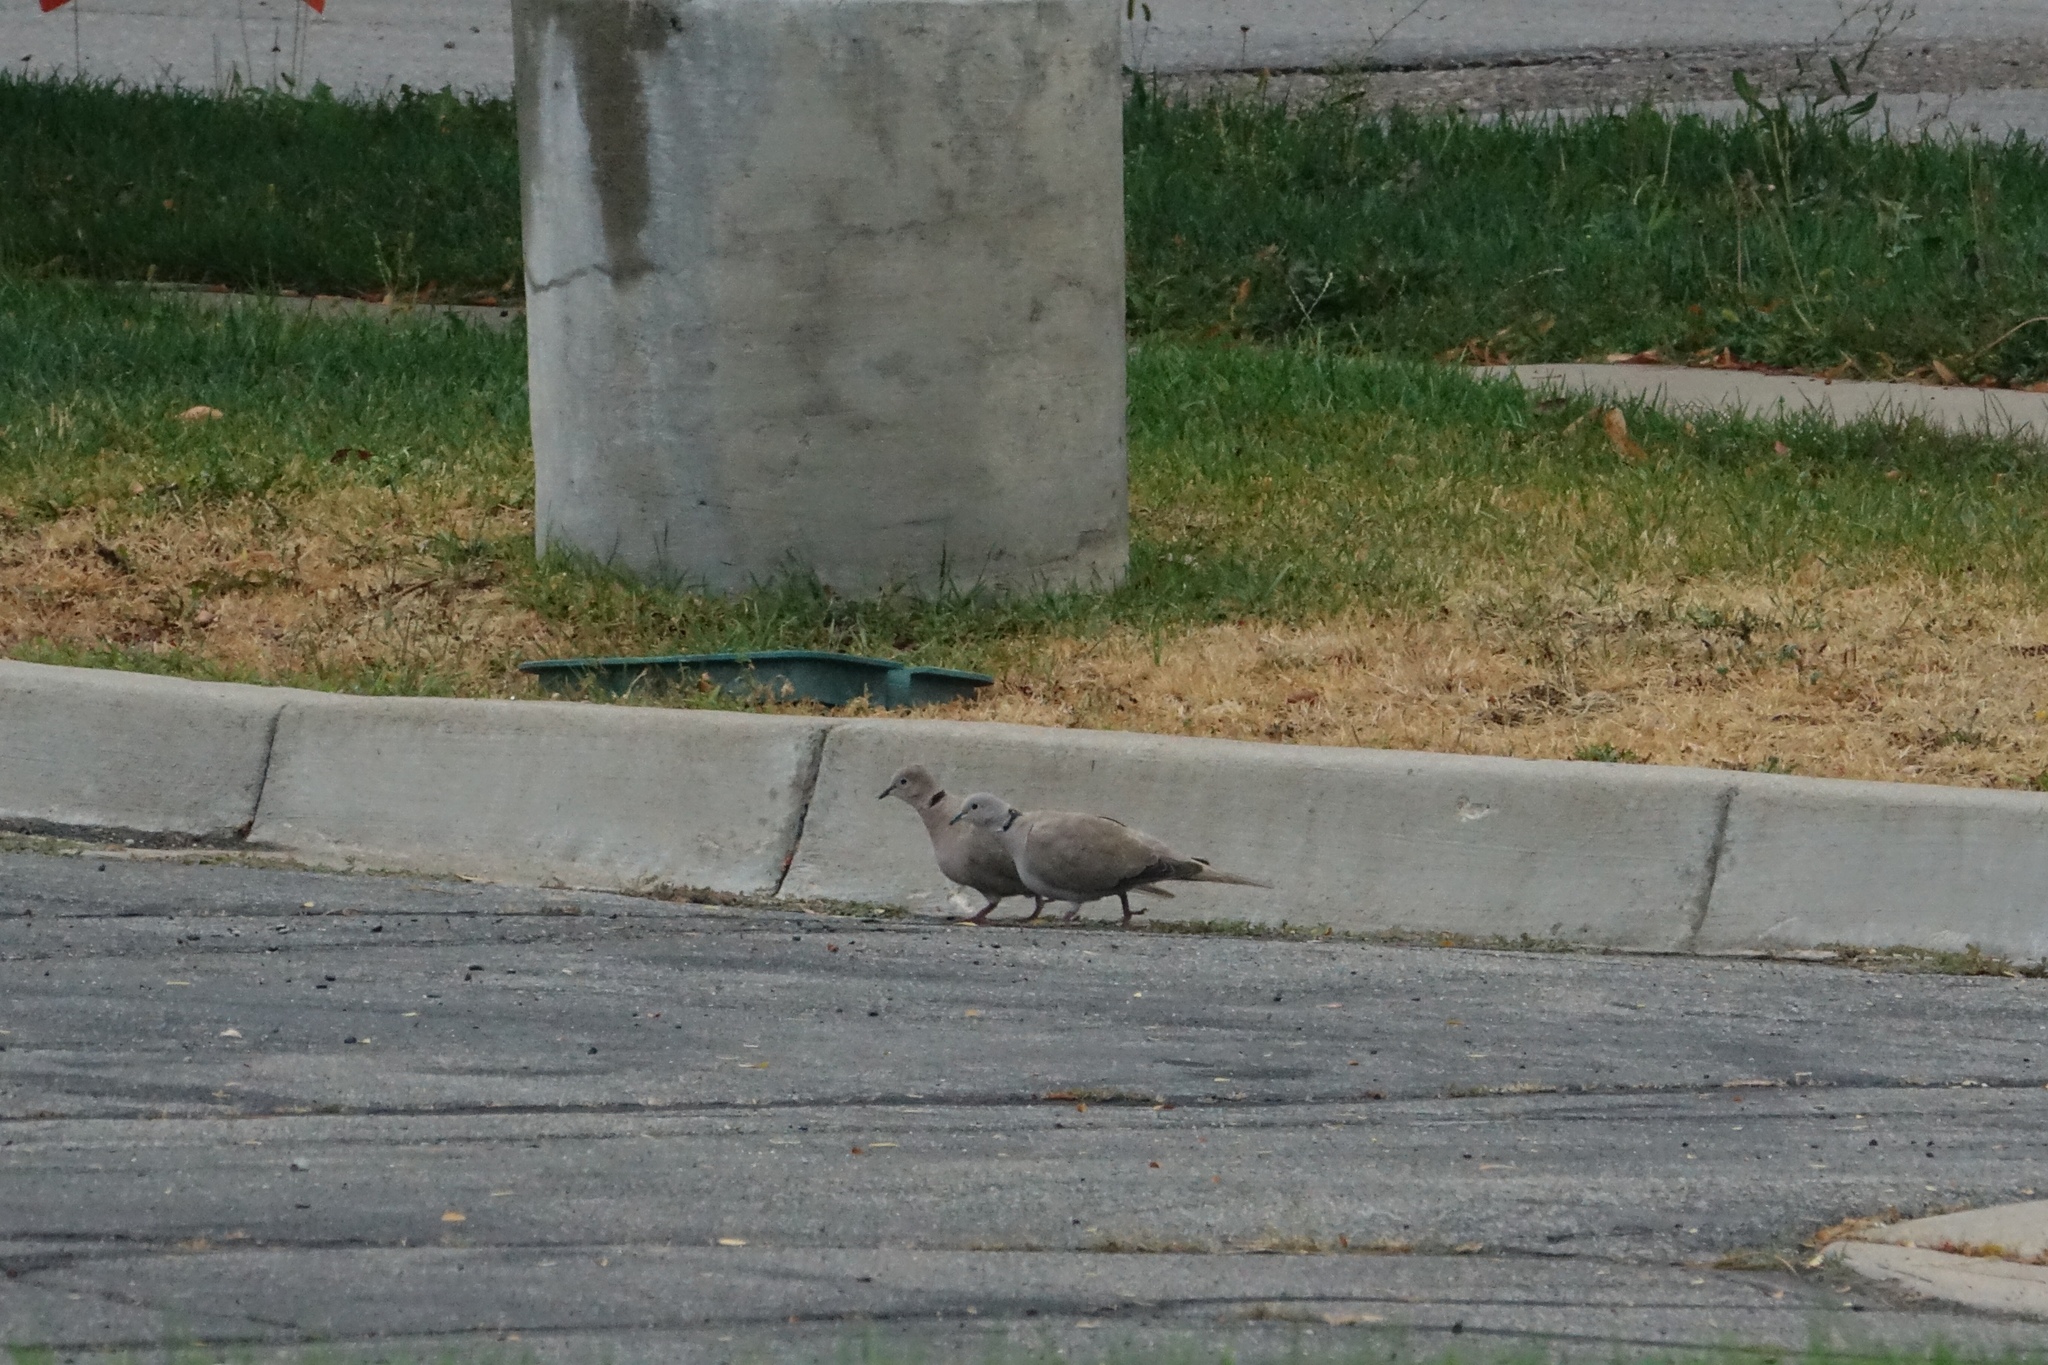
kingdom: Animalia
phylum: Chordata
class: Aves
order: Columbiformes
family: Columbidae
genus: Streptopelia
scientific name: Streptopelia decaocto
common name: Eurasian collared dove
